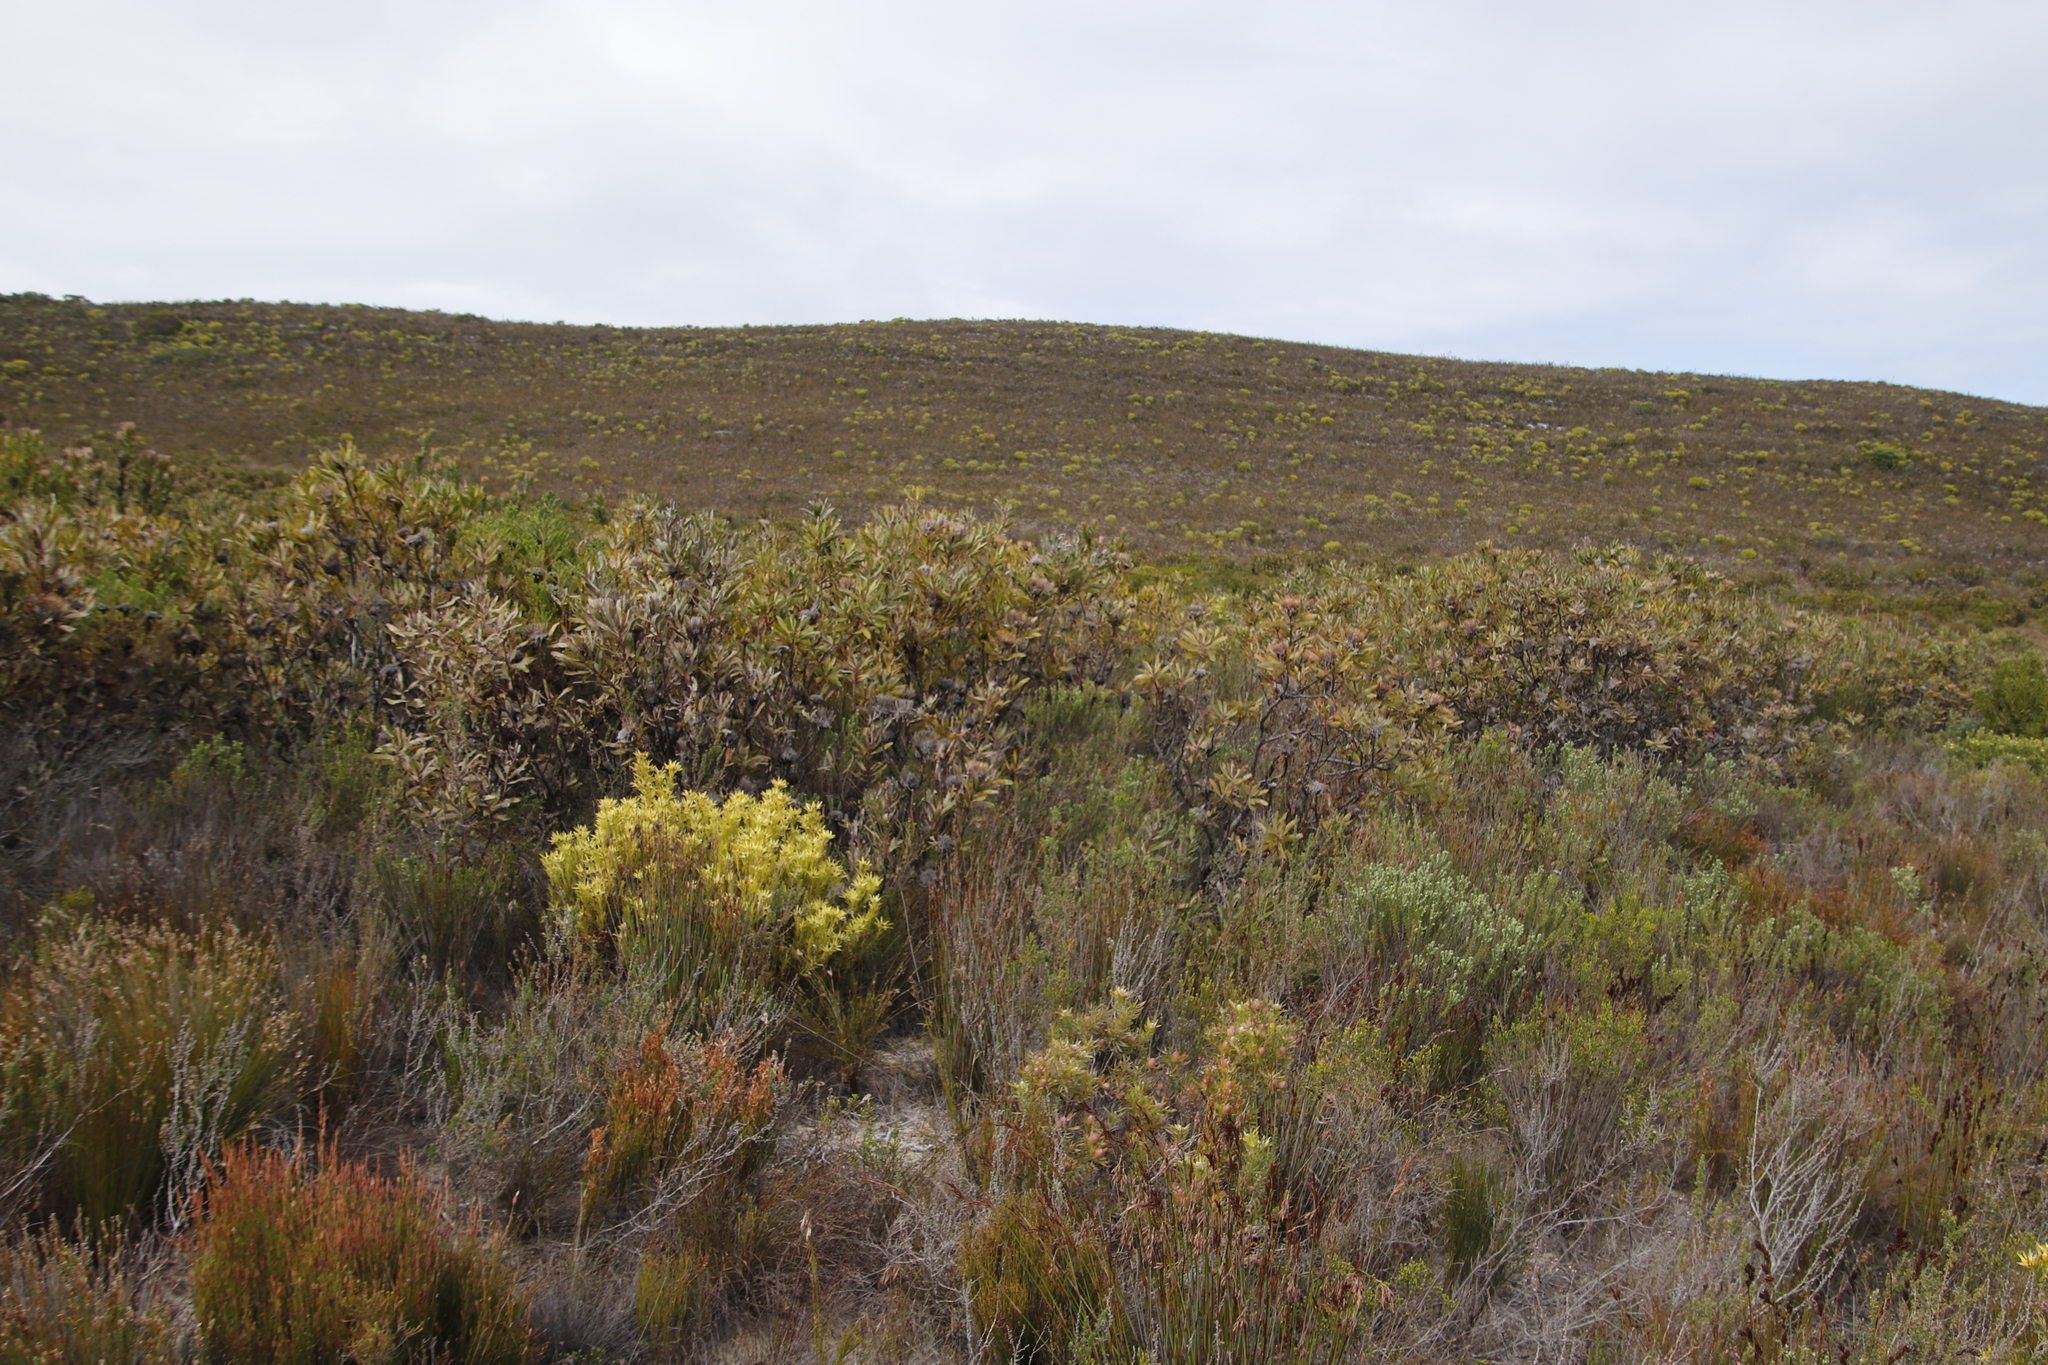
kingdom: Plantae
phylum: Tracheophyta
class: Magnoliopsida
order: Proteales
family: Proteaceae
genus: Protea
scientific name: Protea susannae
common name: Foetid-leaf sugarbush
